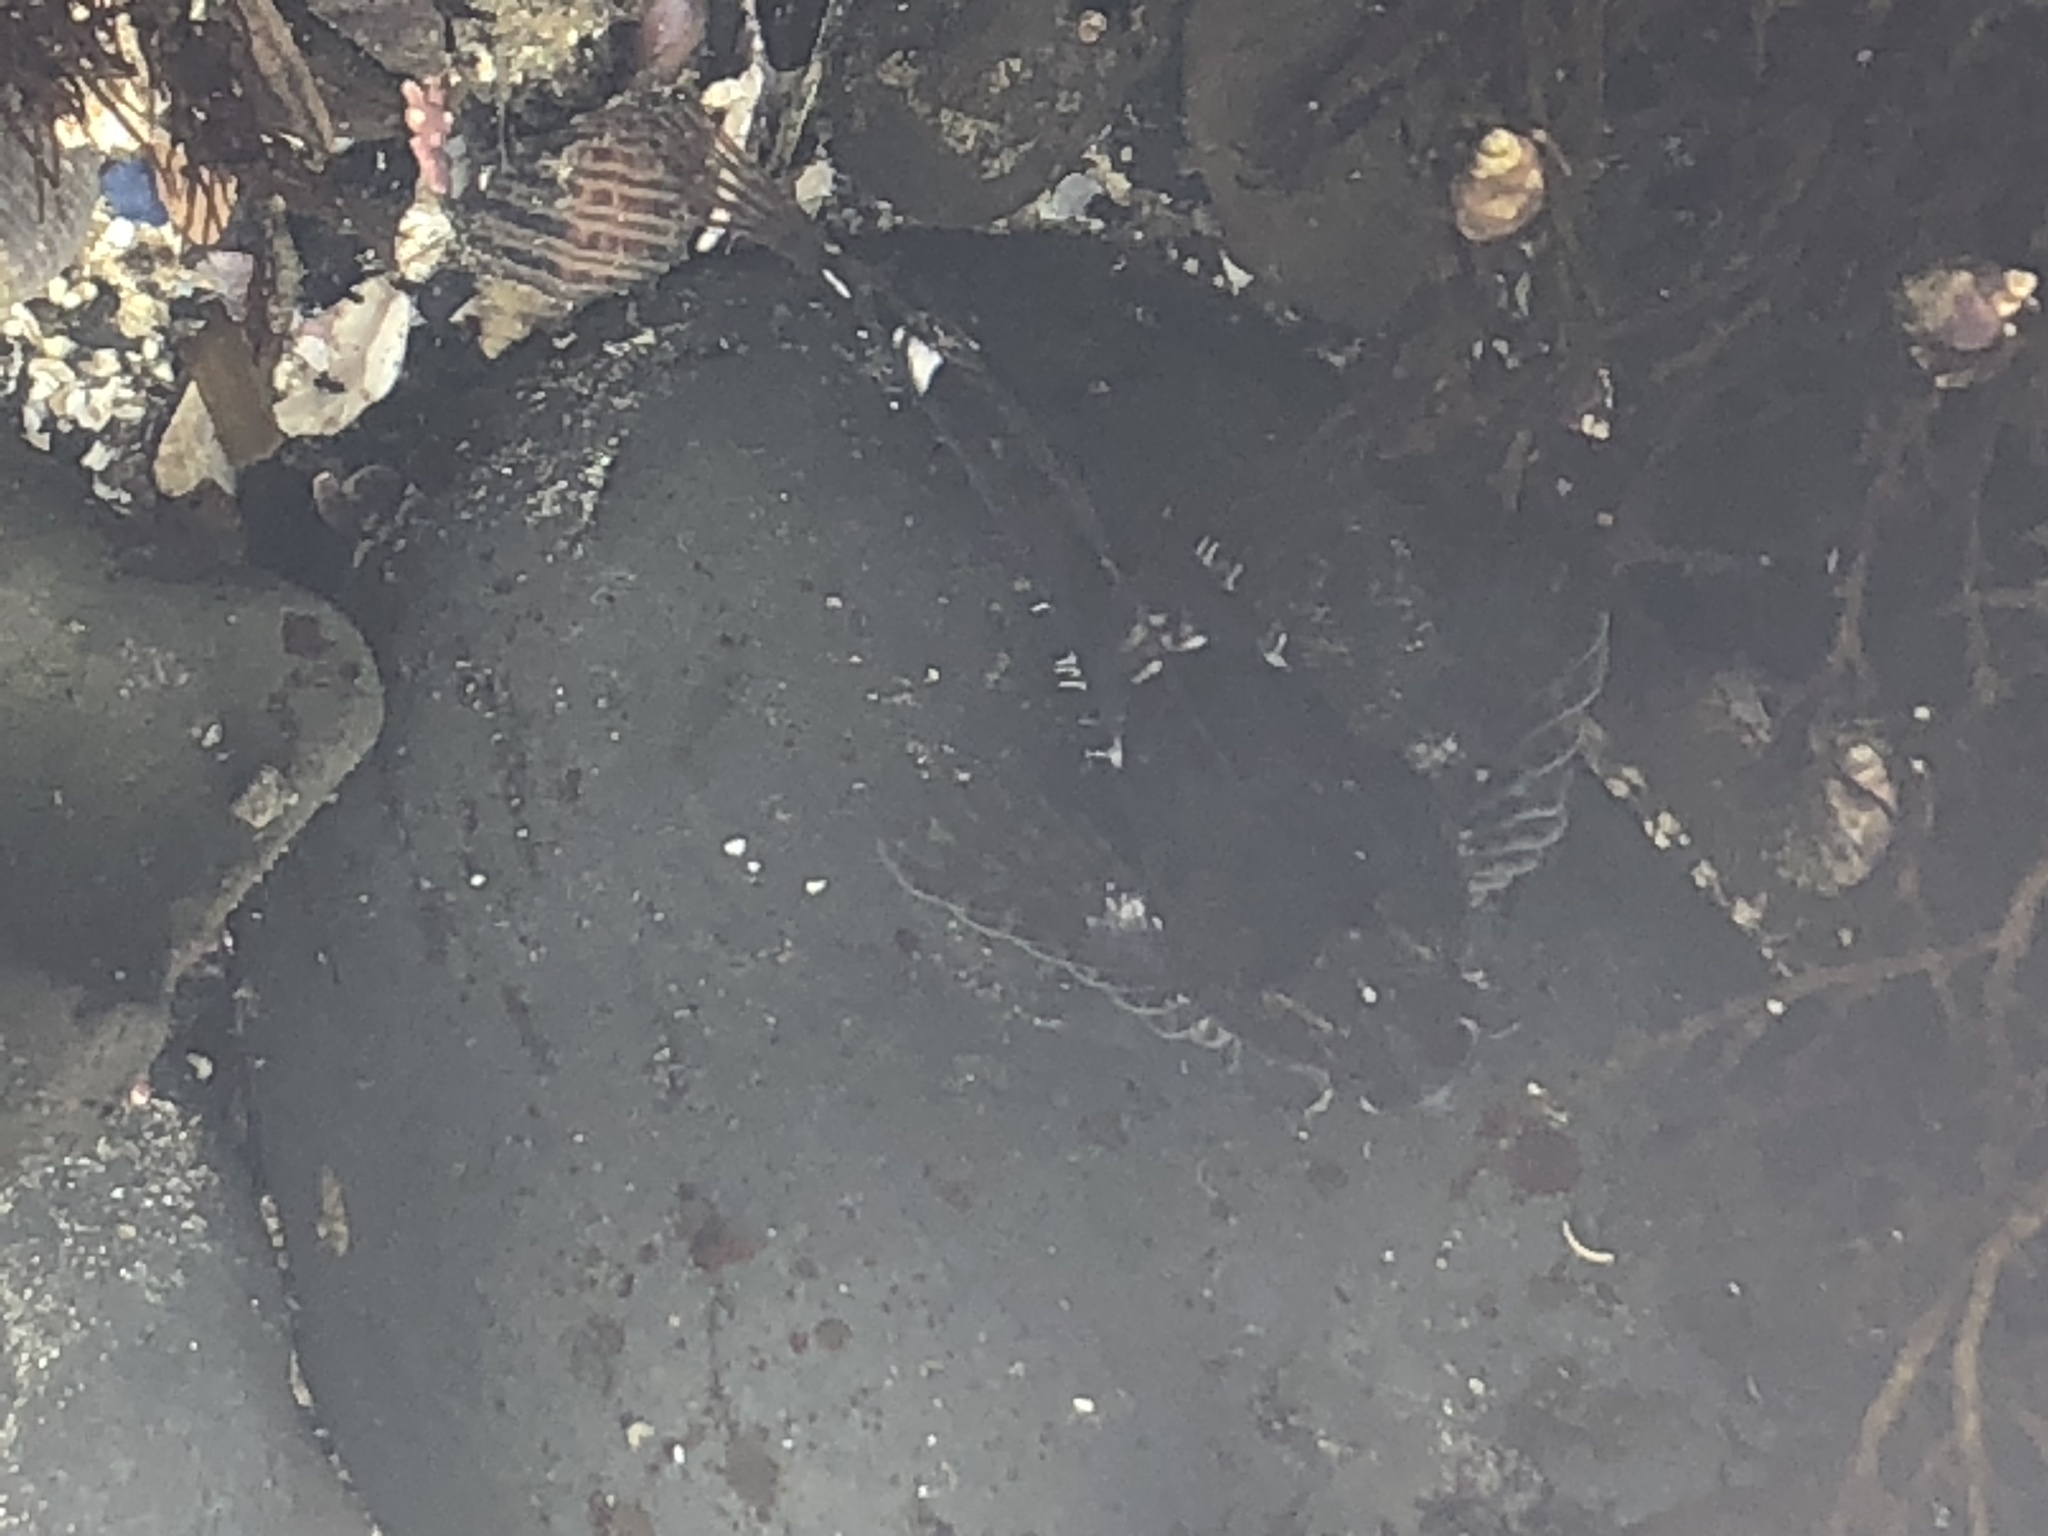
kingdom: Animalia
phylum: Chordata
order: Scorpaeniformes
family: Cottidae
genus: Oligocottus
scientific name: Oligocottus maculosus
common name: Tidepool sculpin
